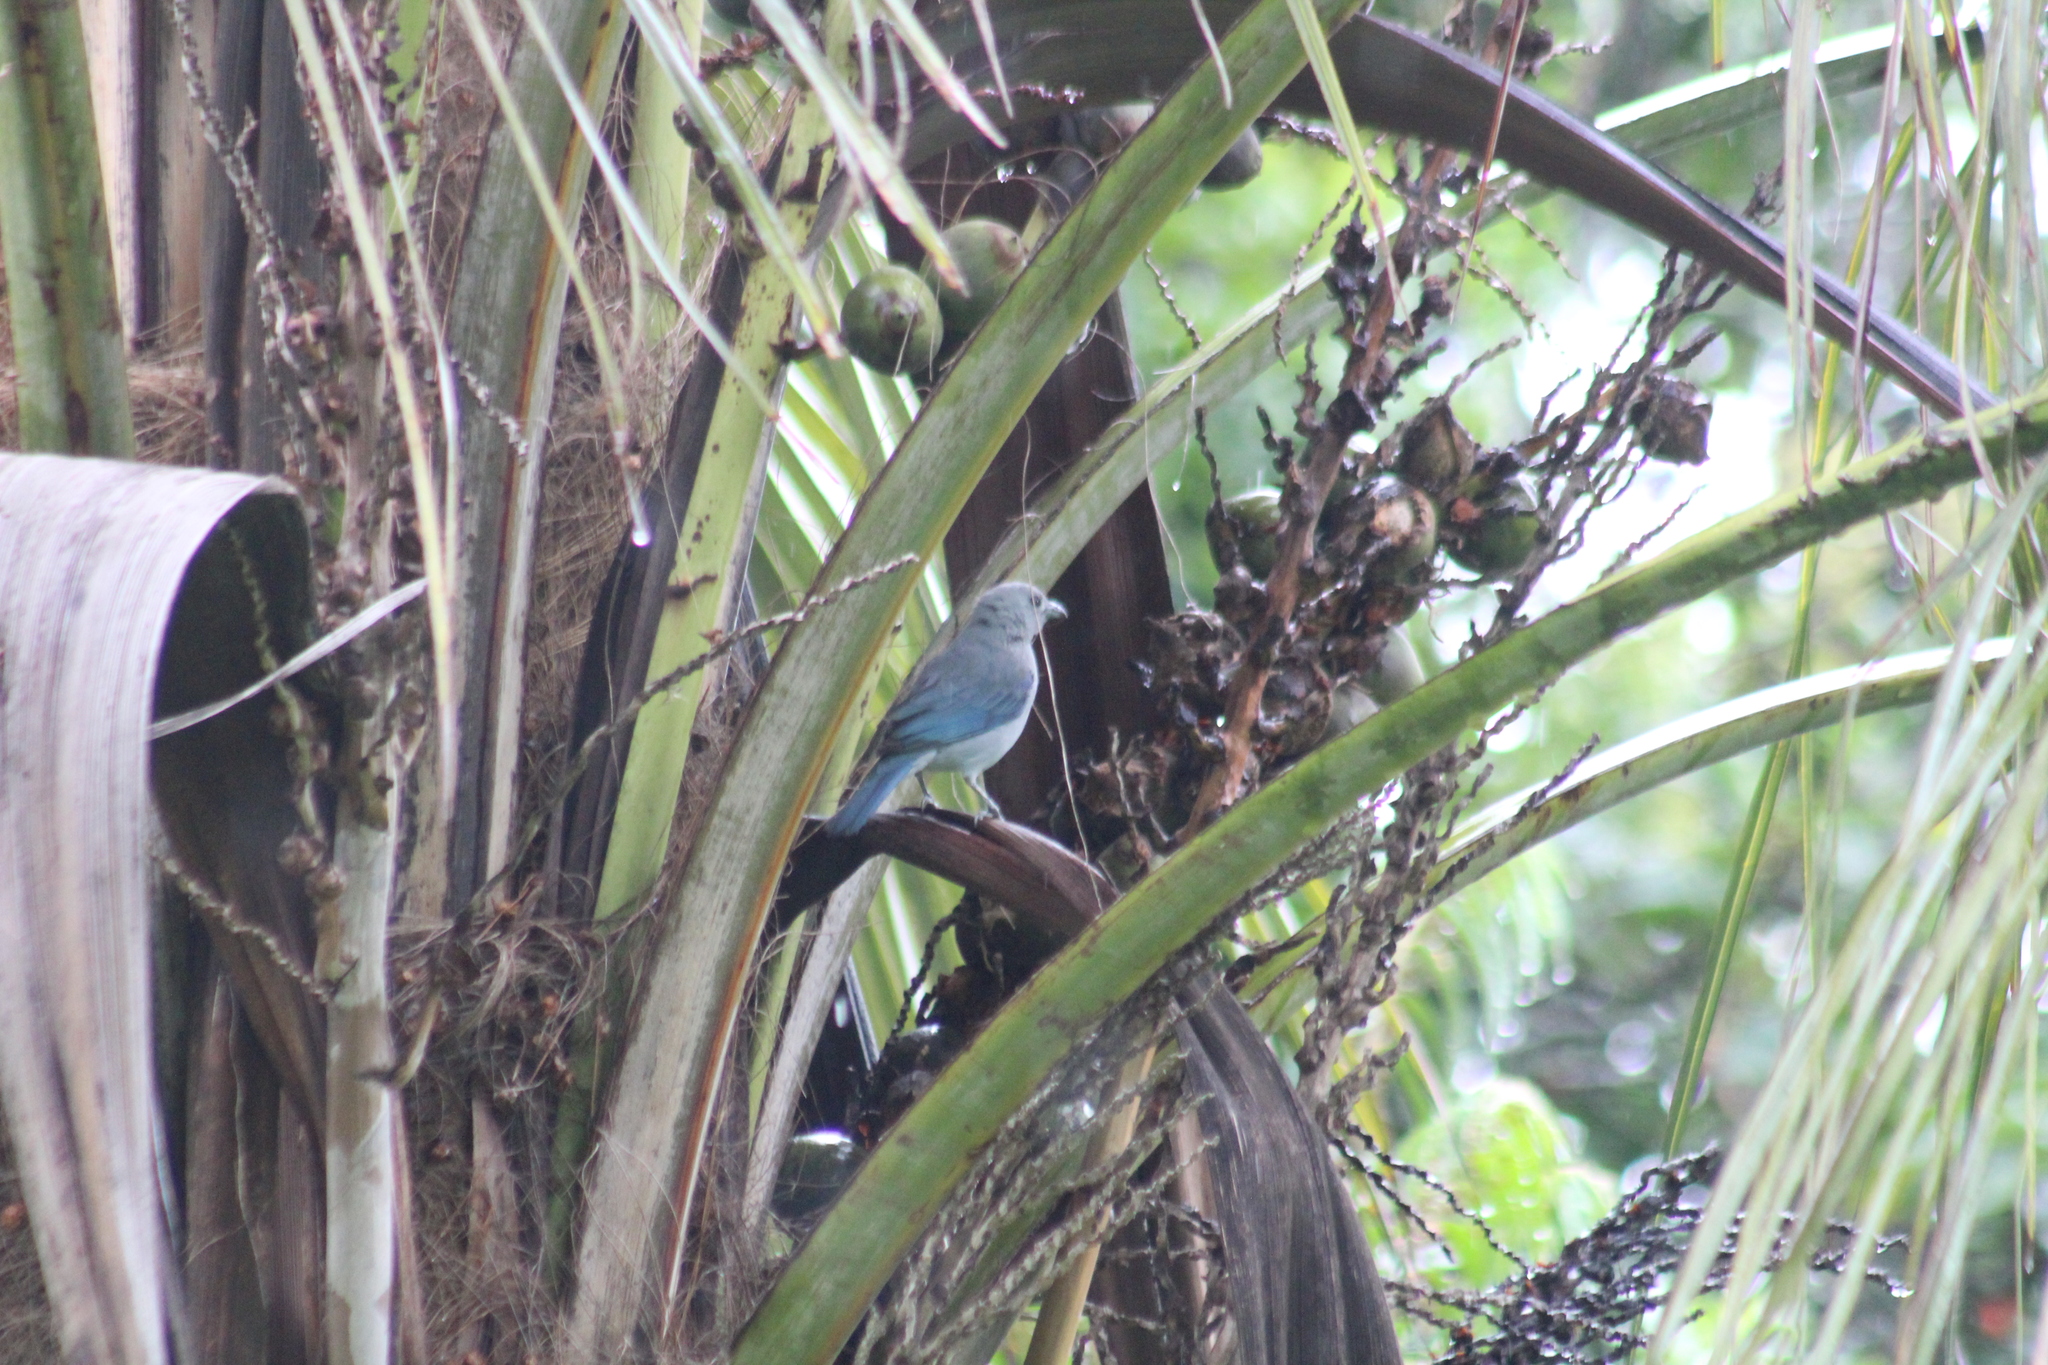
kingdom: Animalia
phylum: Chordata
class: Aves
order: Passeriformes
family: Thraupidae
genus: Thraupis
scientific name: Thraupis episcopus
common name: Blue-grey tanager
